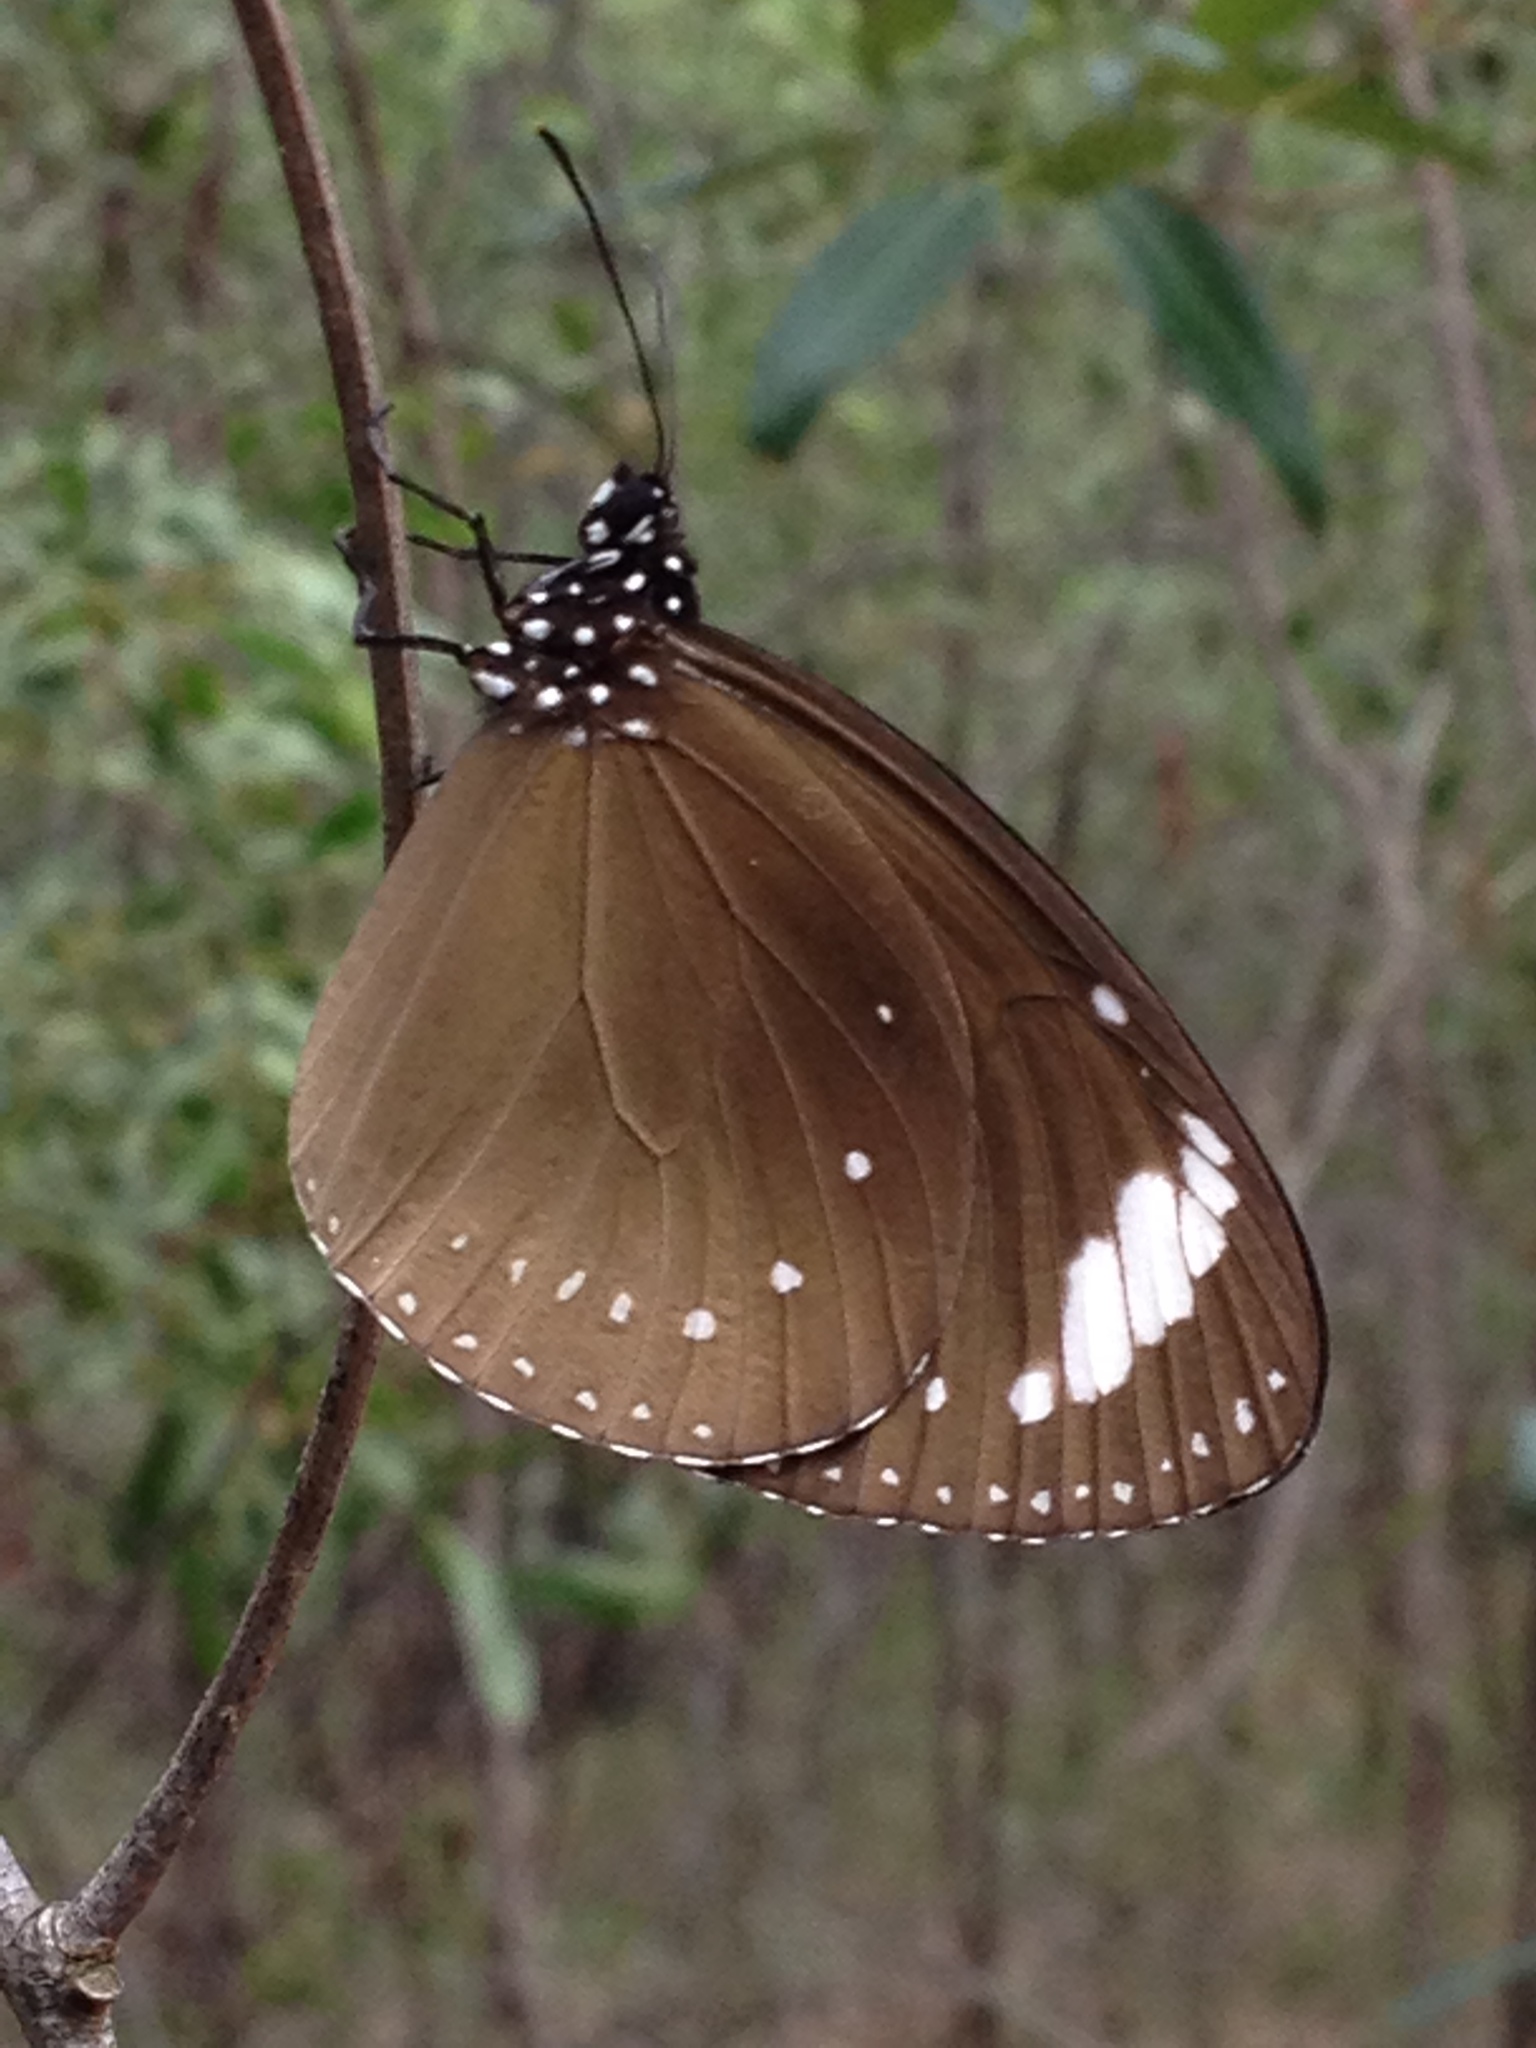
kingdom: Animalia
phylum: Arthropoda
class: Insecta
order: Lepidoptera
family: Nymphalidae
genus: Euploea
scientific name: Euploea tulliolus
